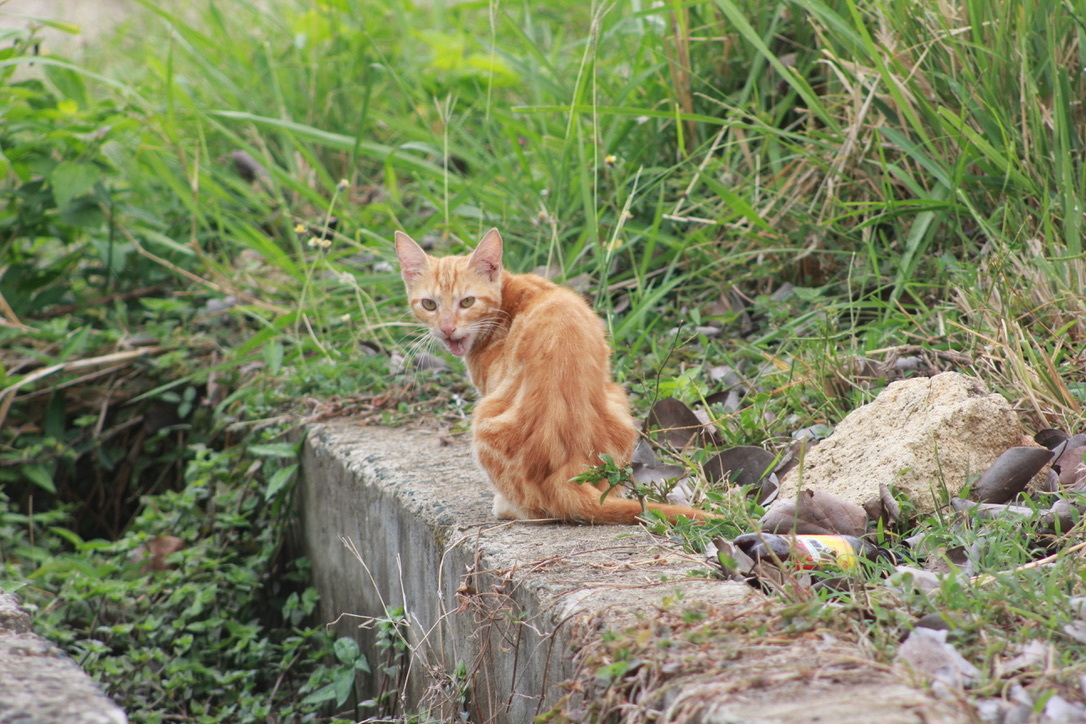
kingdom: Animalia
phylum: Chordata
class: Mammalia
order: Carnivora
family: Felidae
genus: Felis
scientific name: Felis catus
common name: Domestic cat
